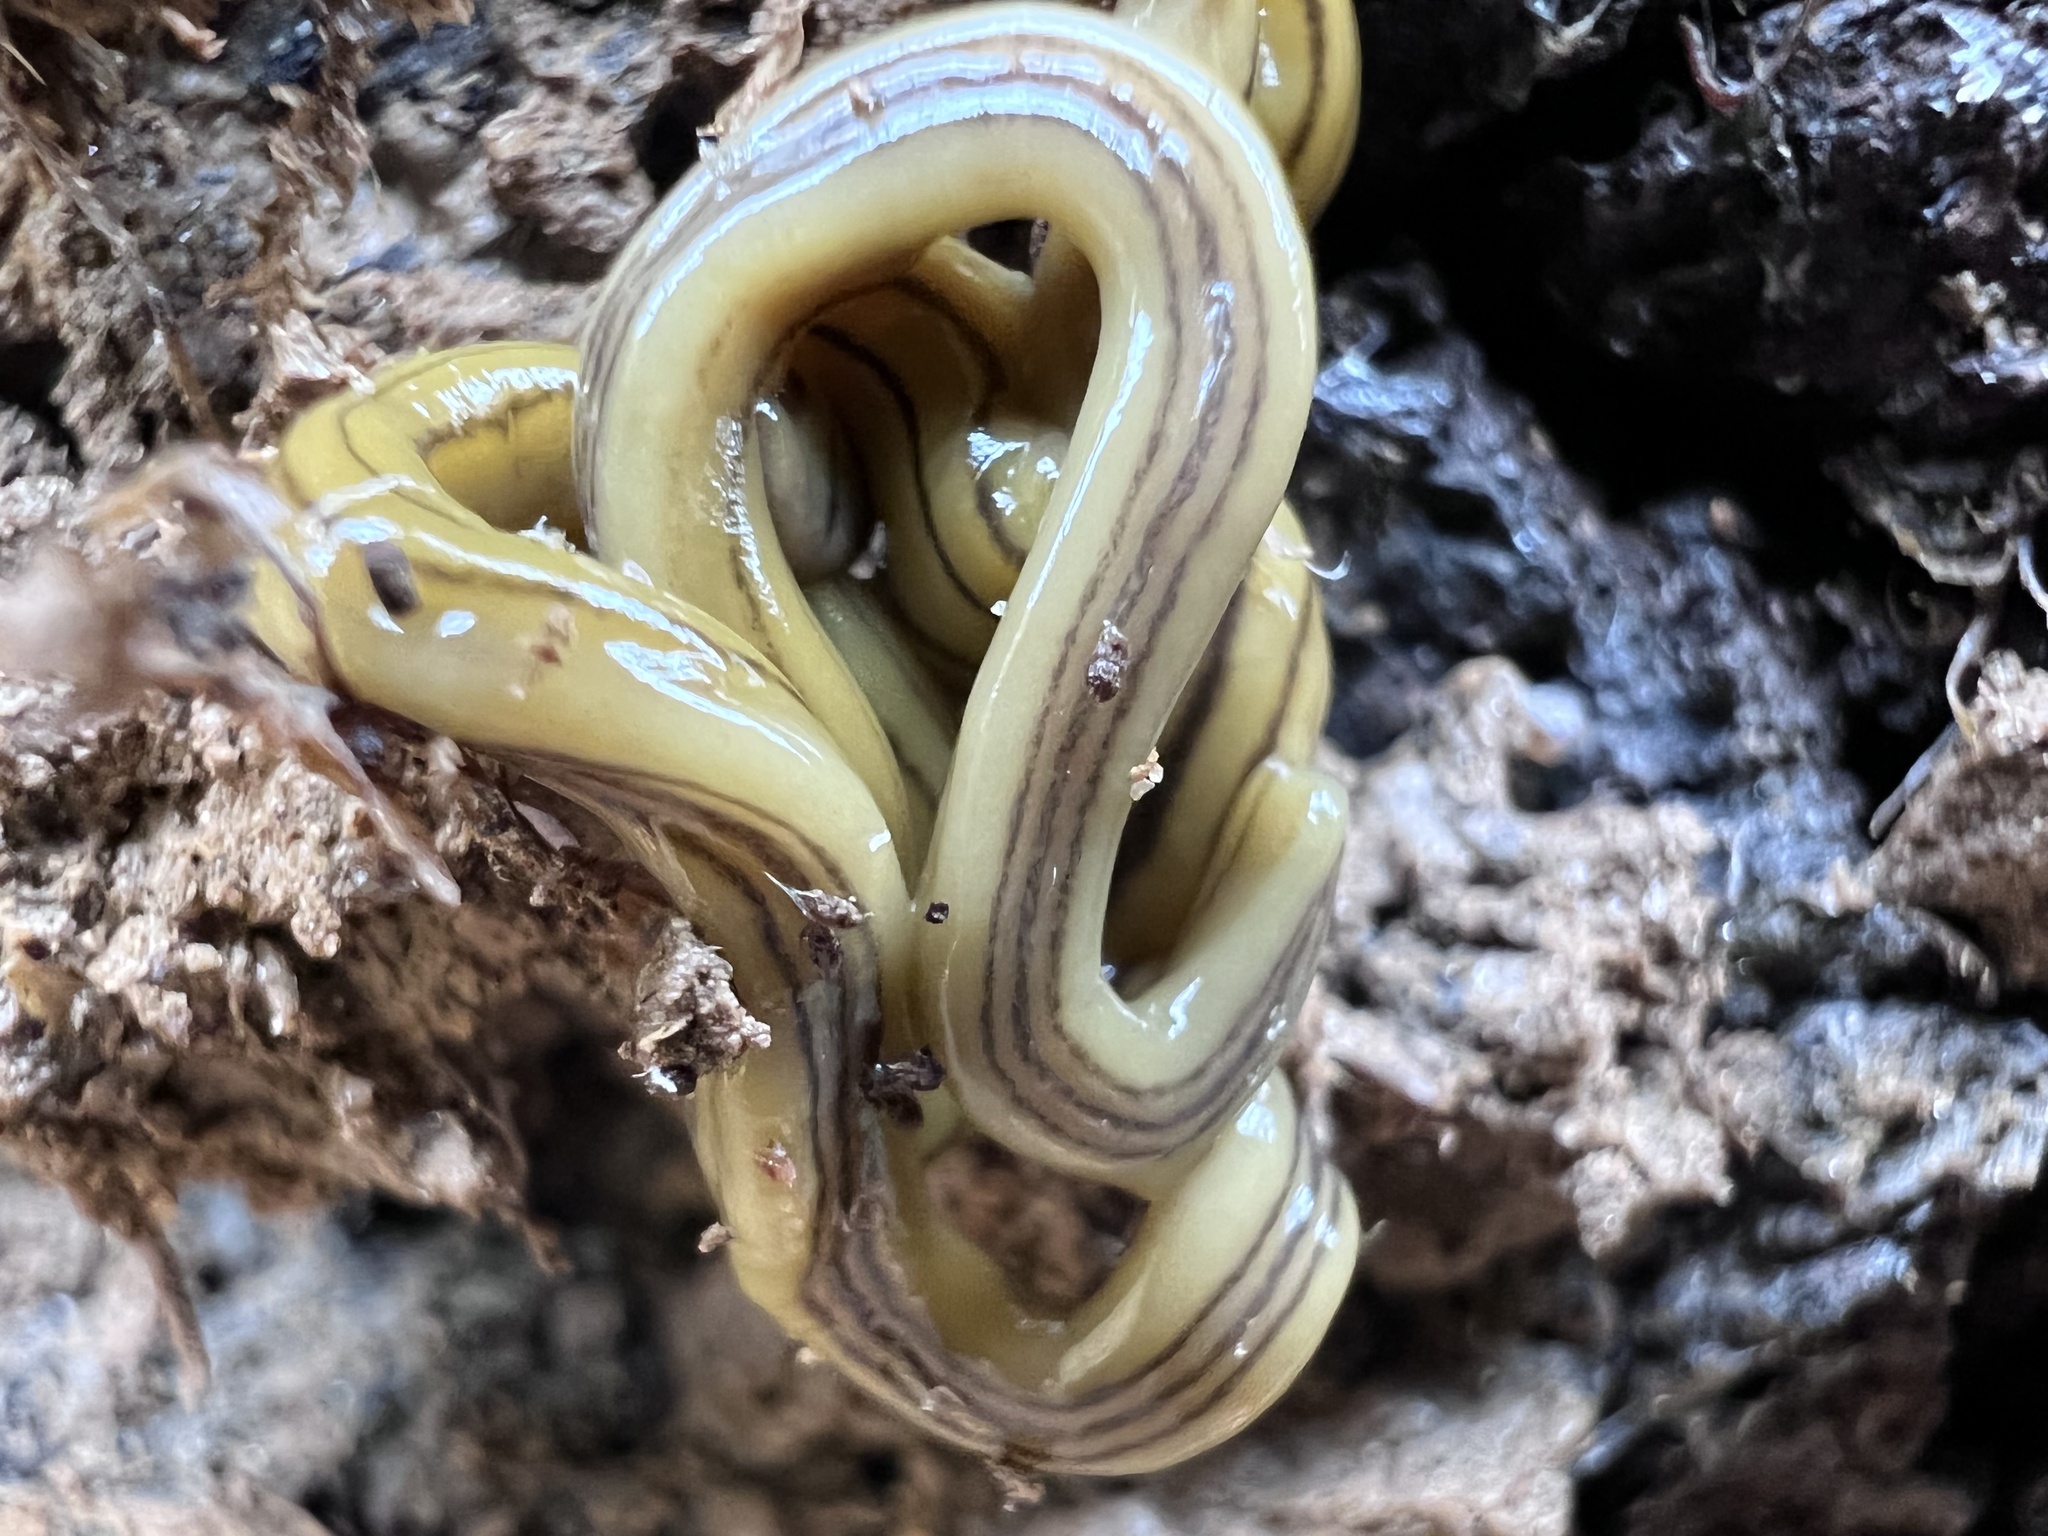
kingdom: Animalia
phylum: Platyhelminthes
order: Tricladida
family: Geoplanidae
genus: Diversibipalium
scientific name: Diversibipalium multilineatum
